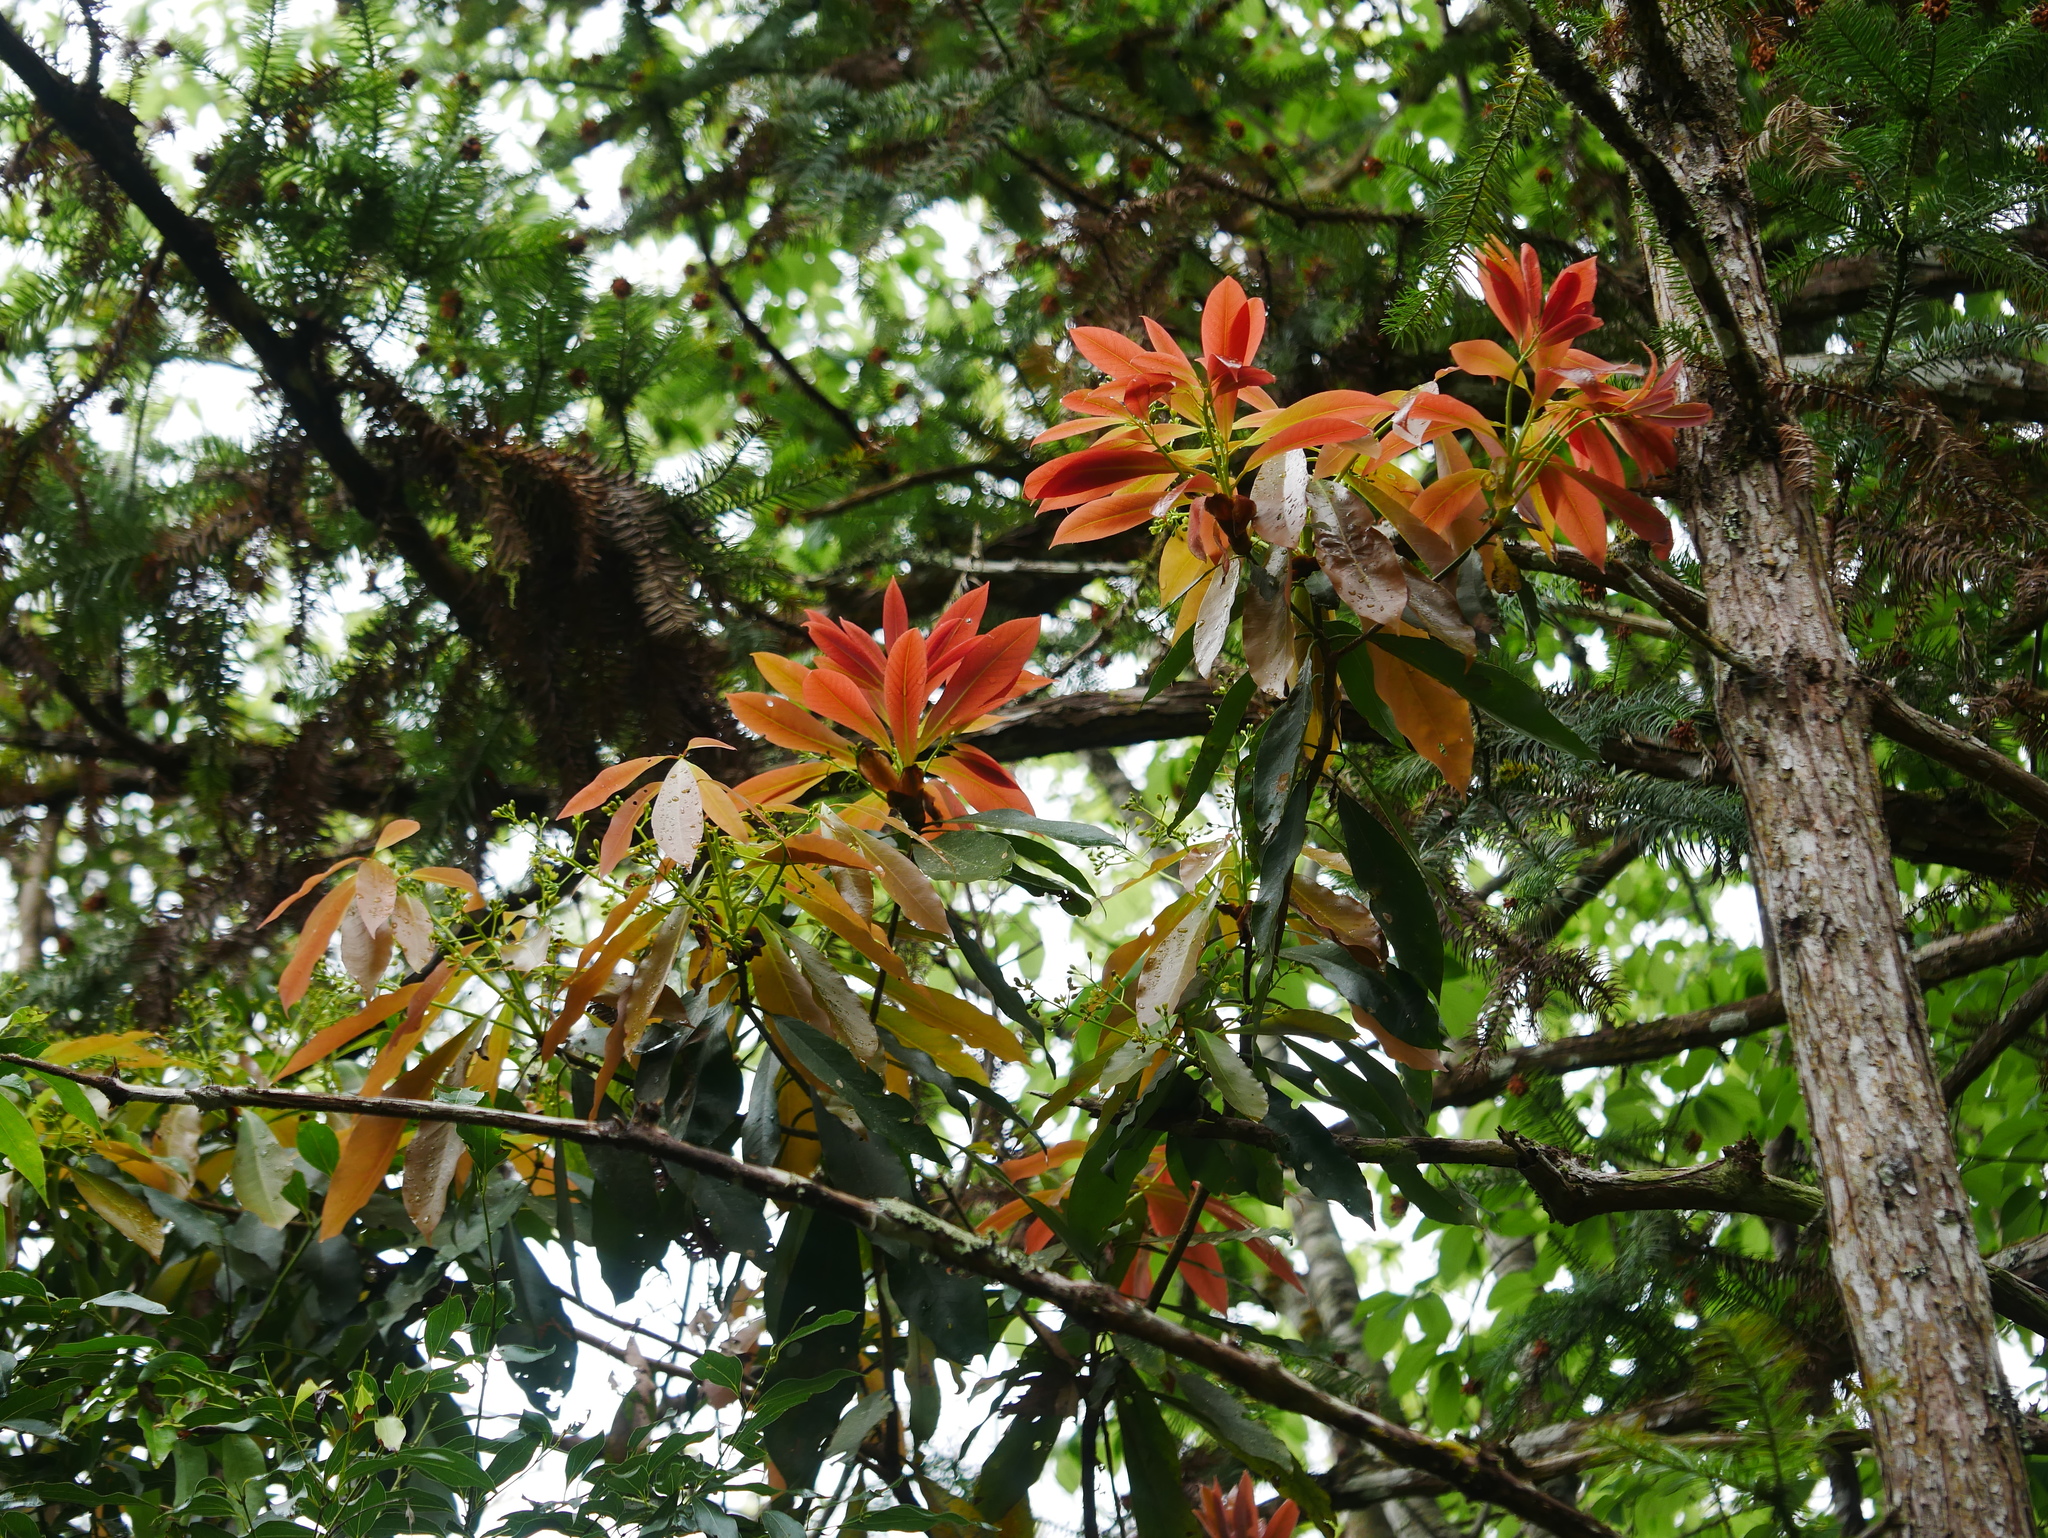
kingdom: Plantae
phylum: Tracheophyta
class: Magnoliopsida
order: Laurales
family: Lauraceae
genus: Machilus
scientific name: Machilus thunbergii
